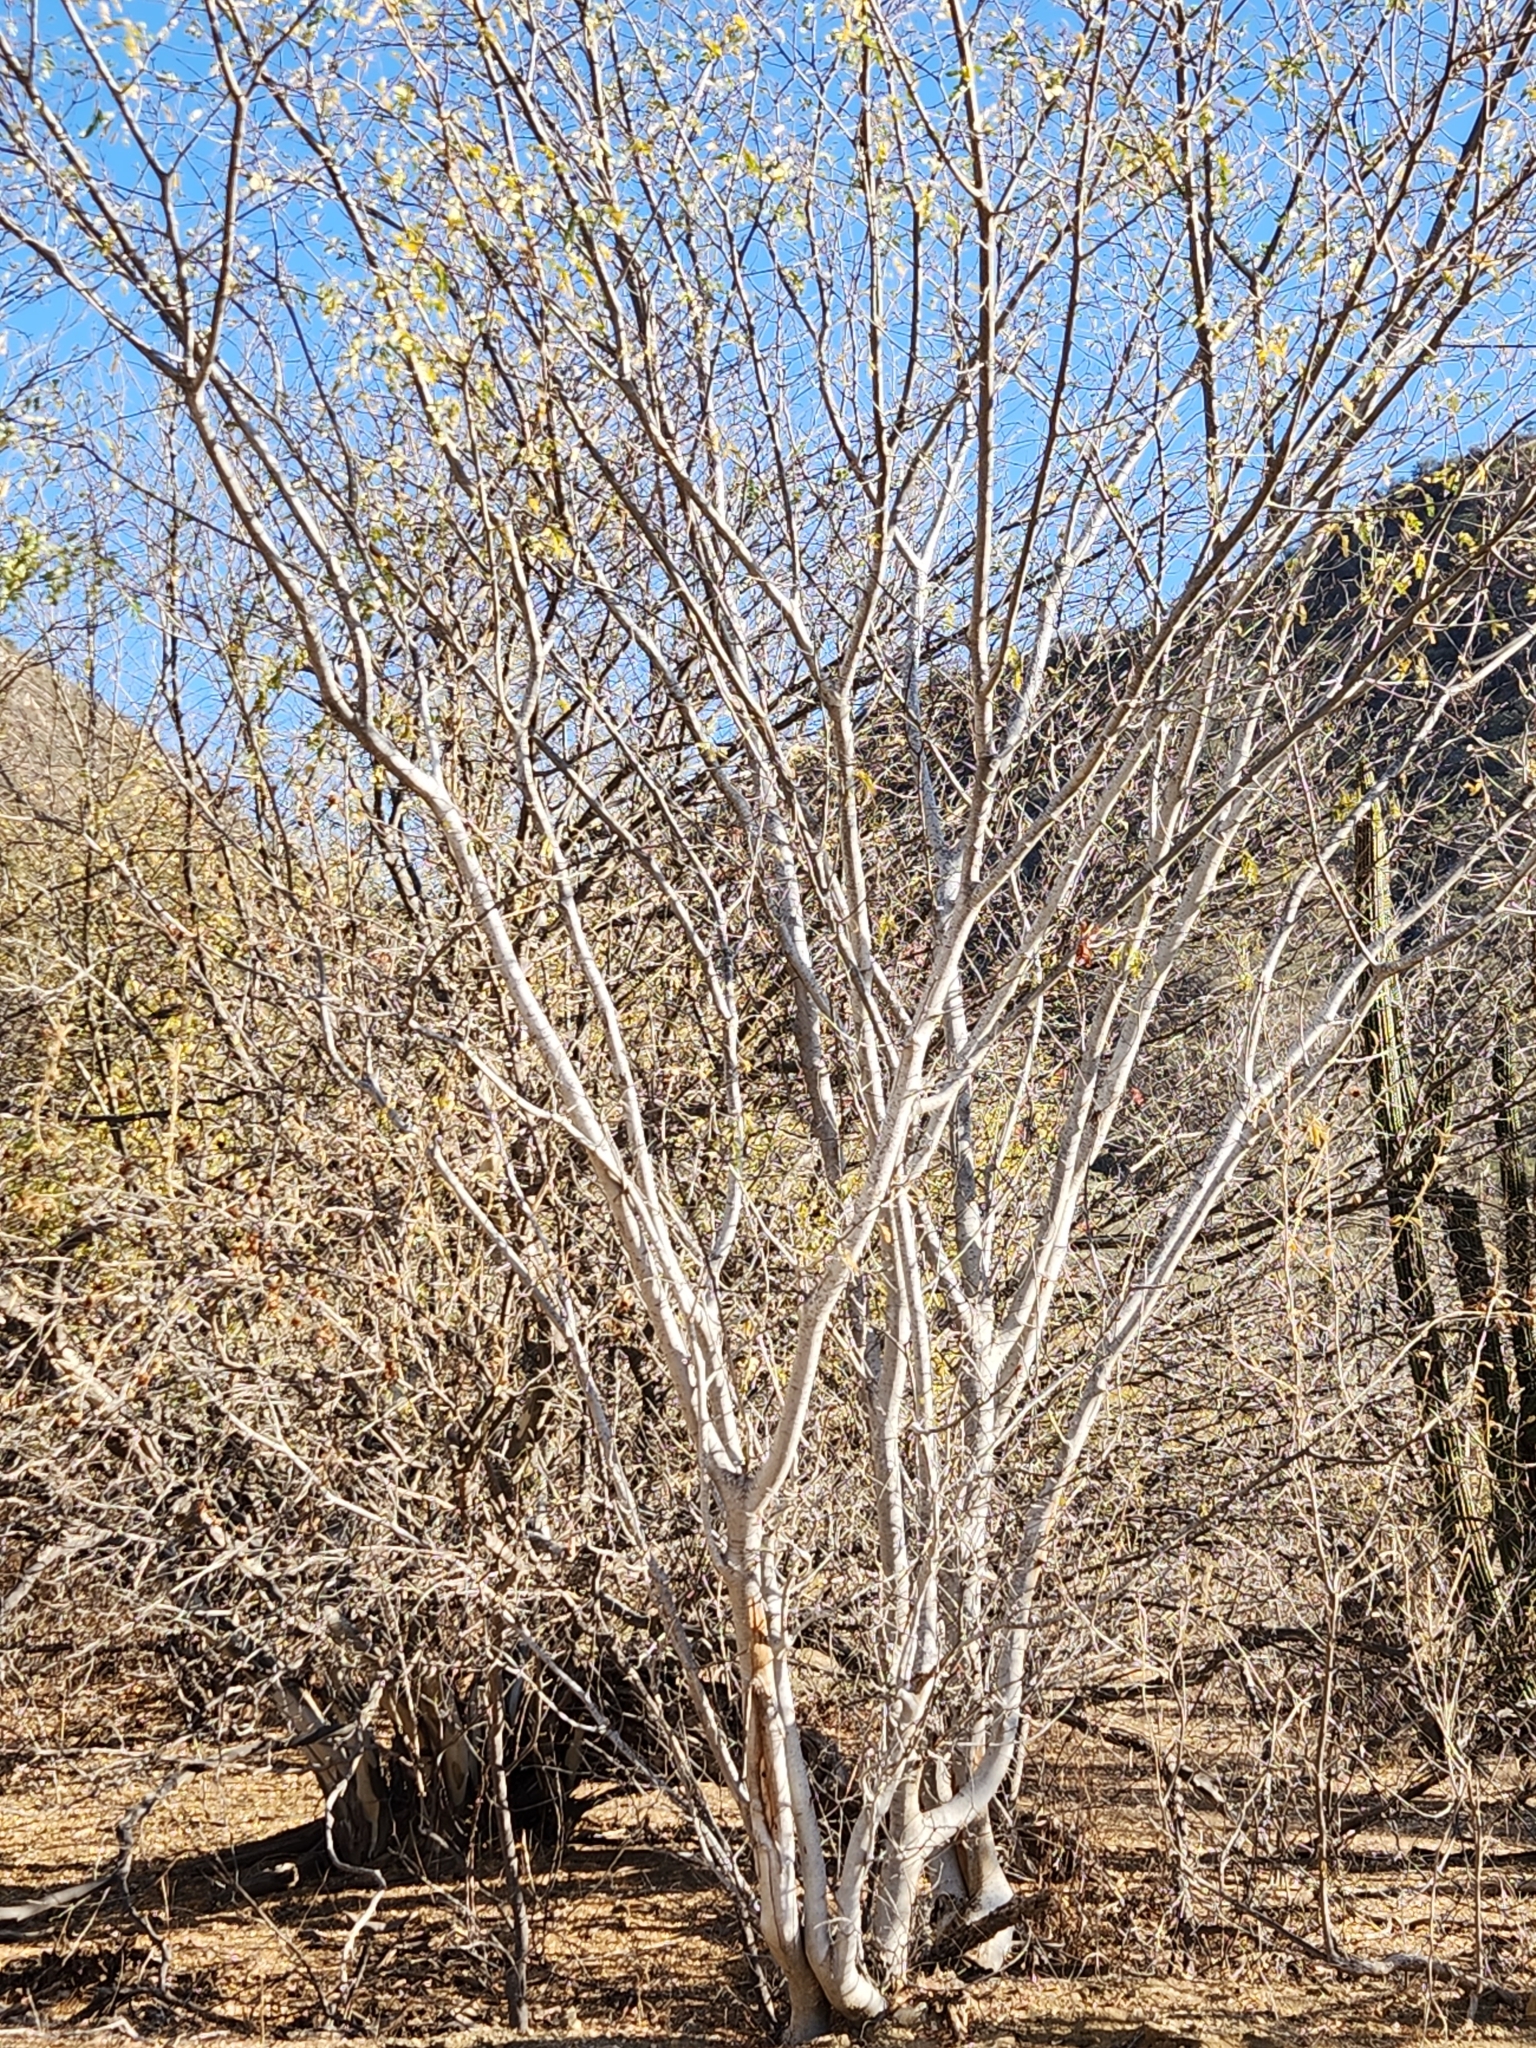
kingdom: Plantae
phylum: Tracheophyta
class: Magnoliopsida
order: Fabales
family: Fabaceae
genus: Lysiloma
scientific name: Lysiloma candidum
